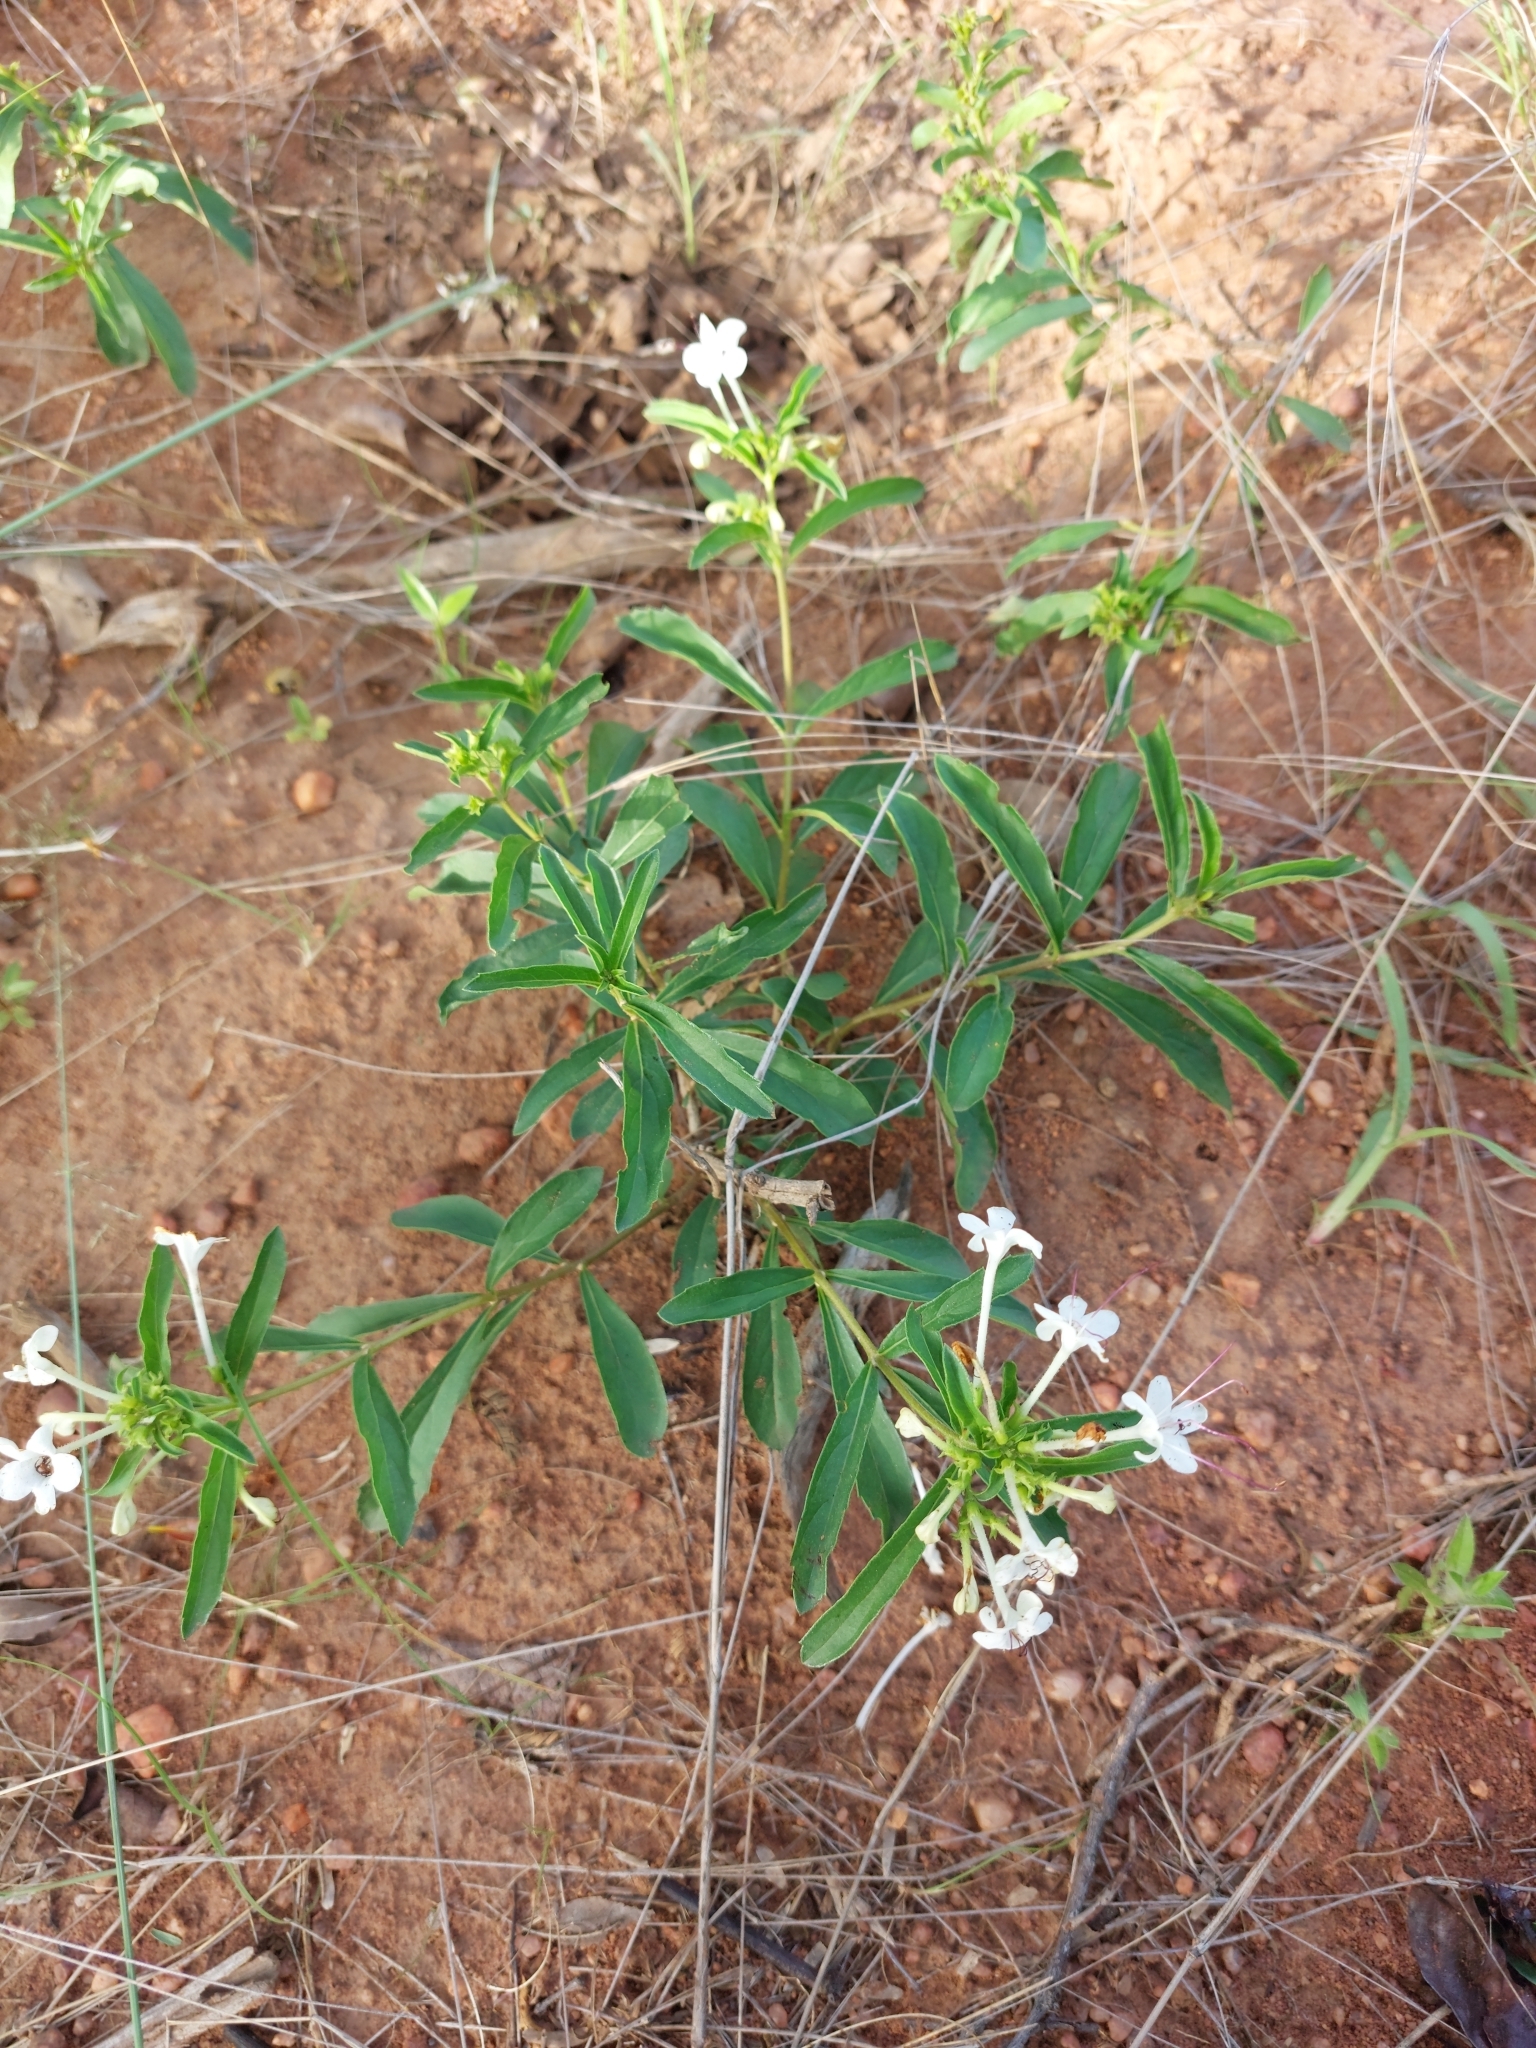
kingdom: Plantae
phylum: Tracheophyta
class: Magnoliopsida
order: Lamiales
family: Lamiaceae
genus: Clerodendrum
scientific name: Clerodendrum ternatum
